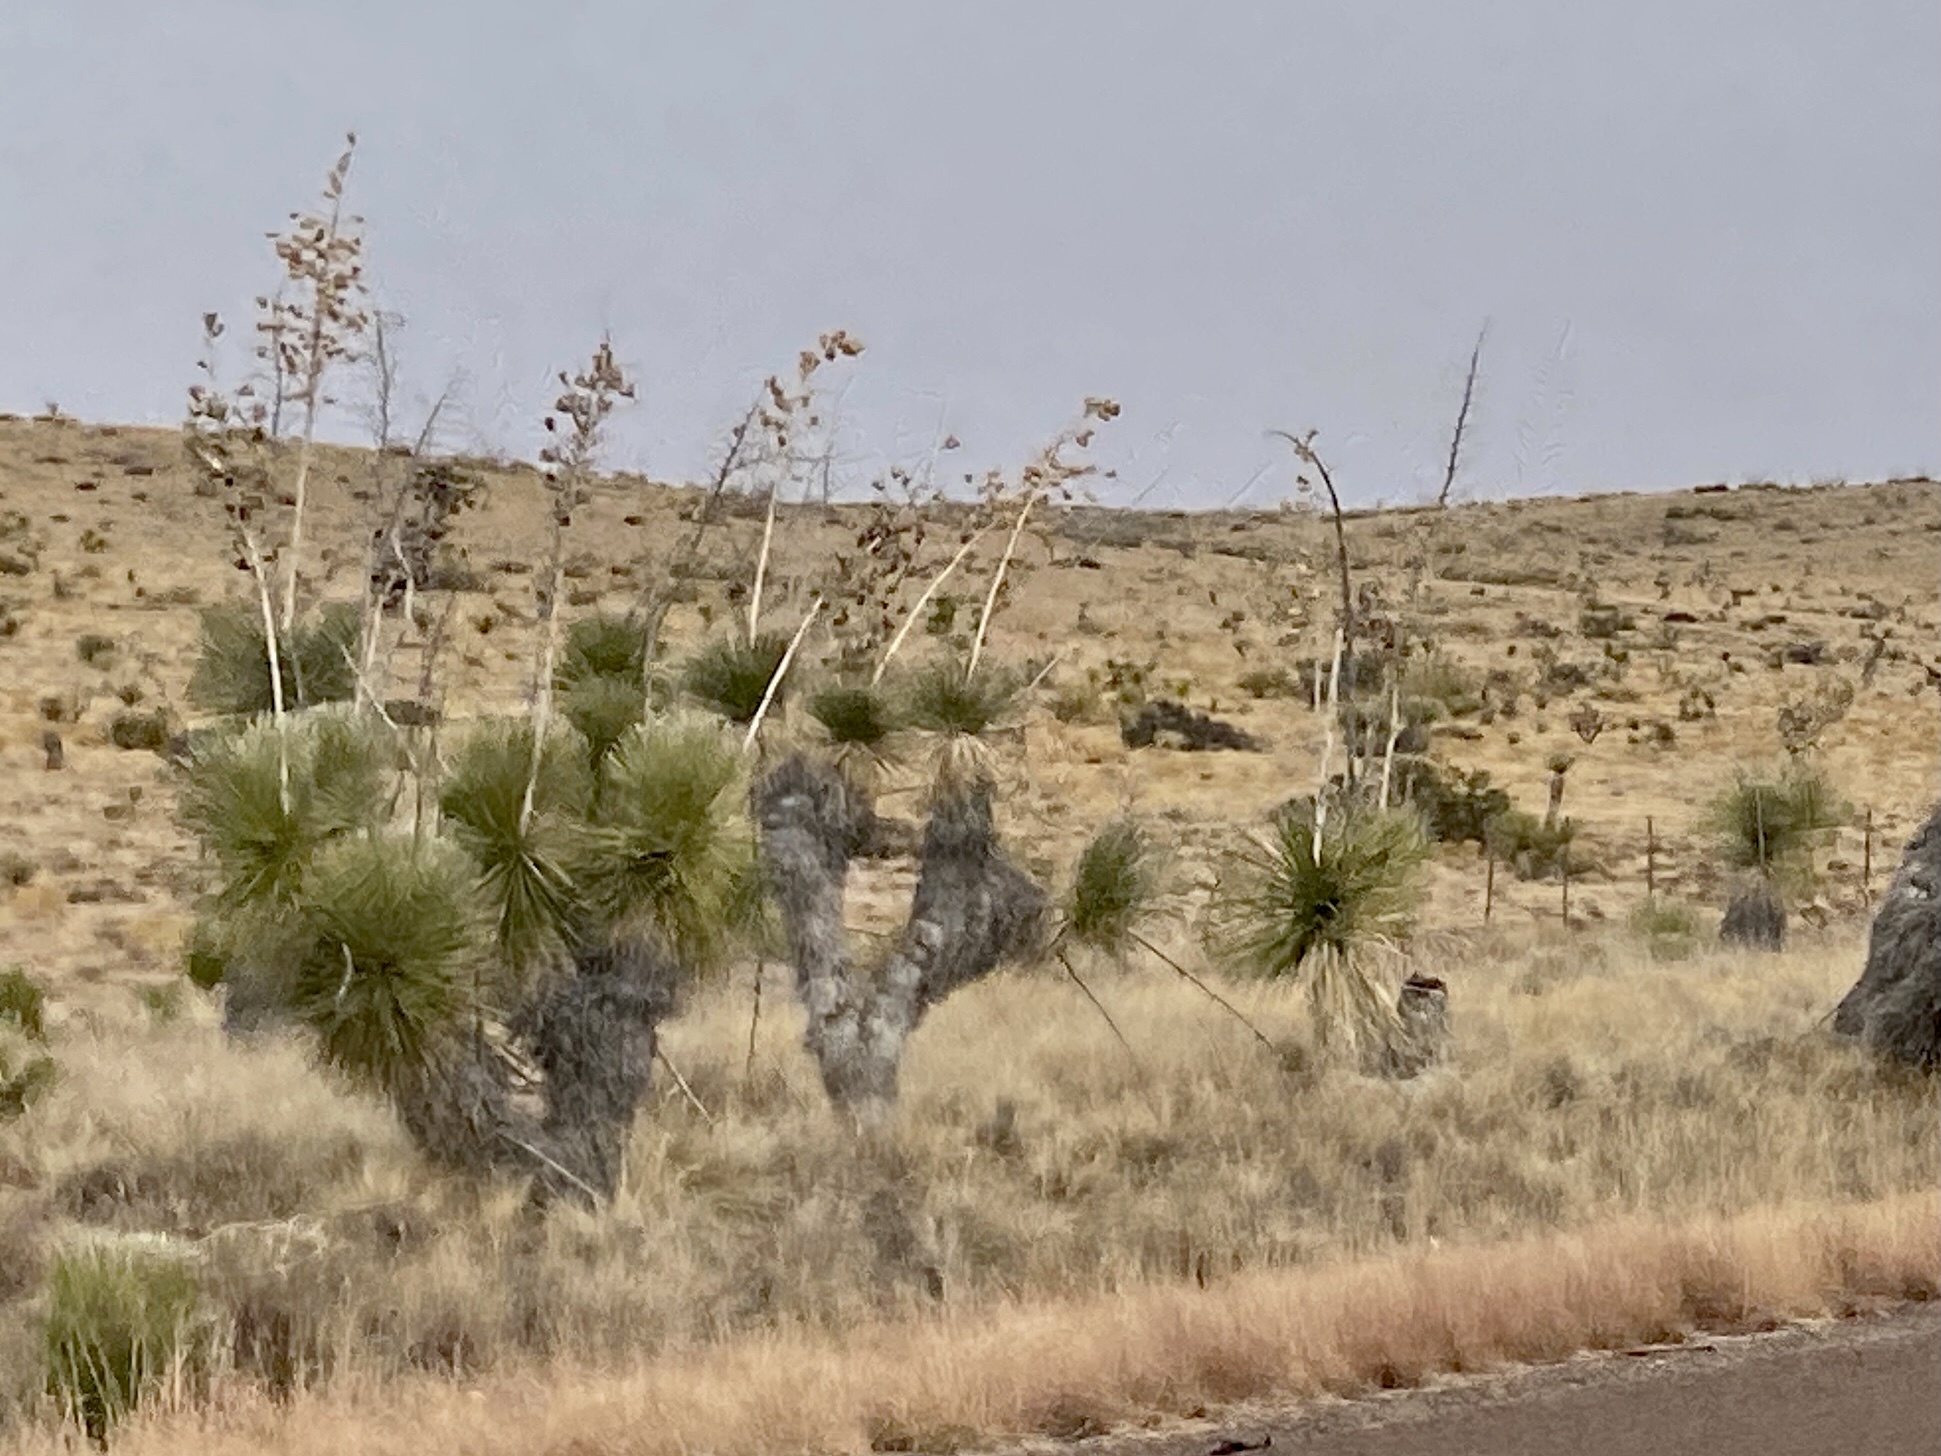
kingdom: Plantae
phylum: Tracheophyta
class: Liliopsida
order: Asparagales
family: Asparagaceae
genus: Yucca
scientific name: Yucca elata
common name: Palmella
